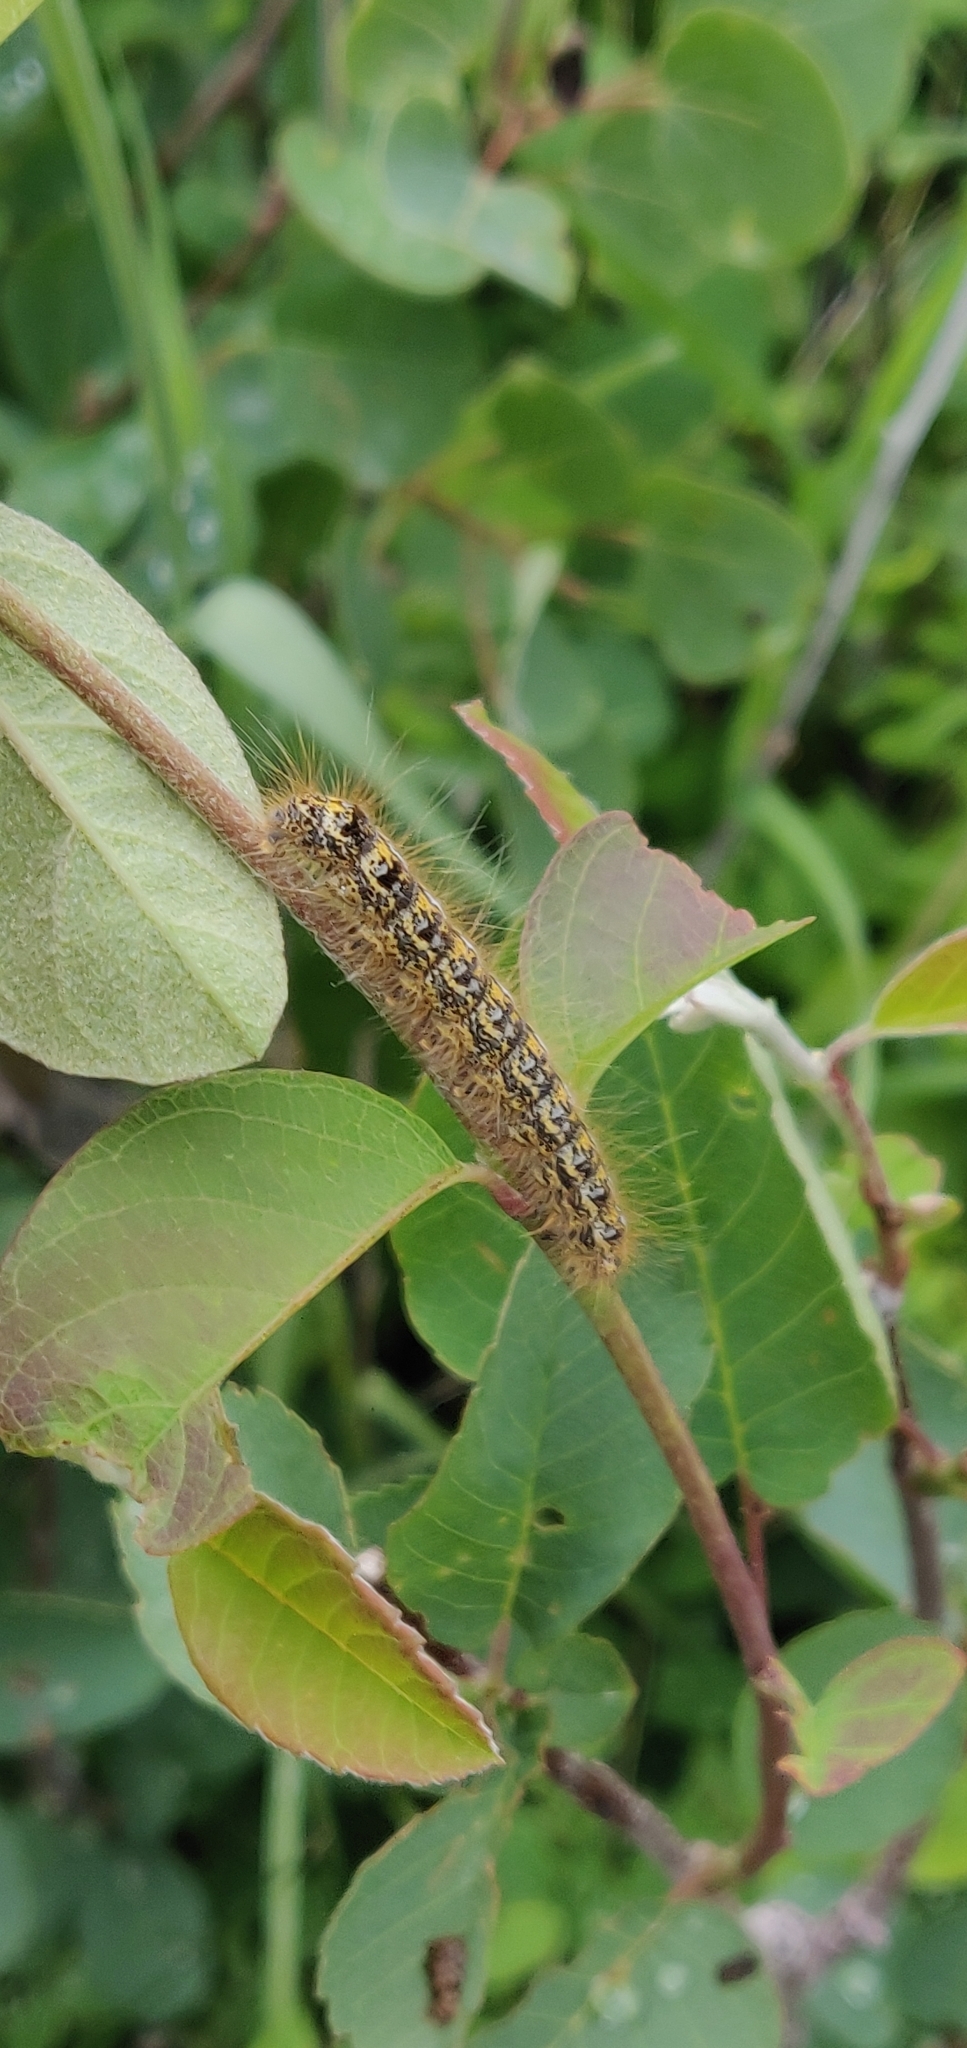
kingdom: Animalia
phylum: Arthropoda
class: Insecta
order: Lepidoptera
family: Lasiocampidae
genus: Malacosoma
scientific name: Malacosoma californica
